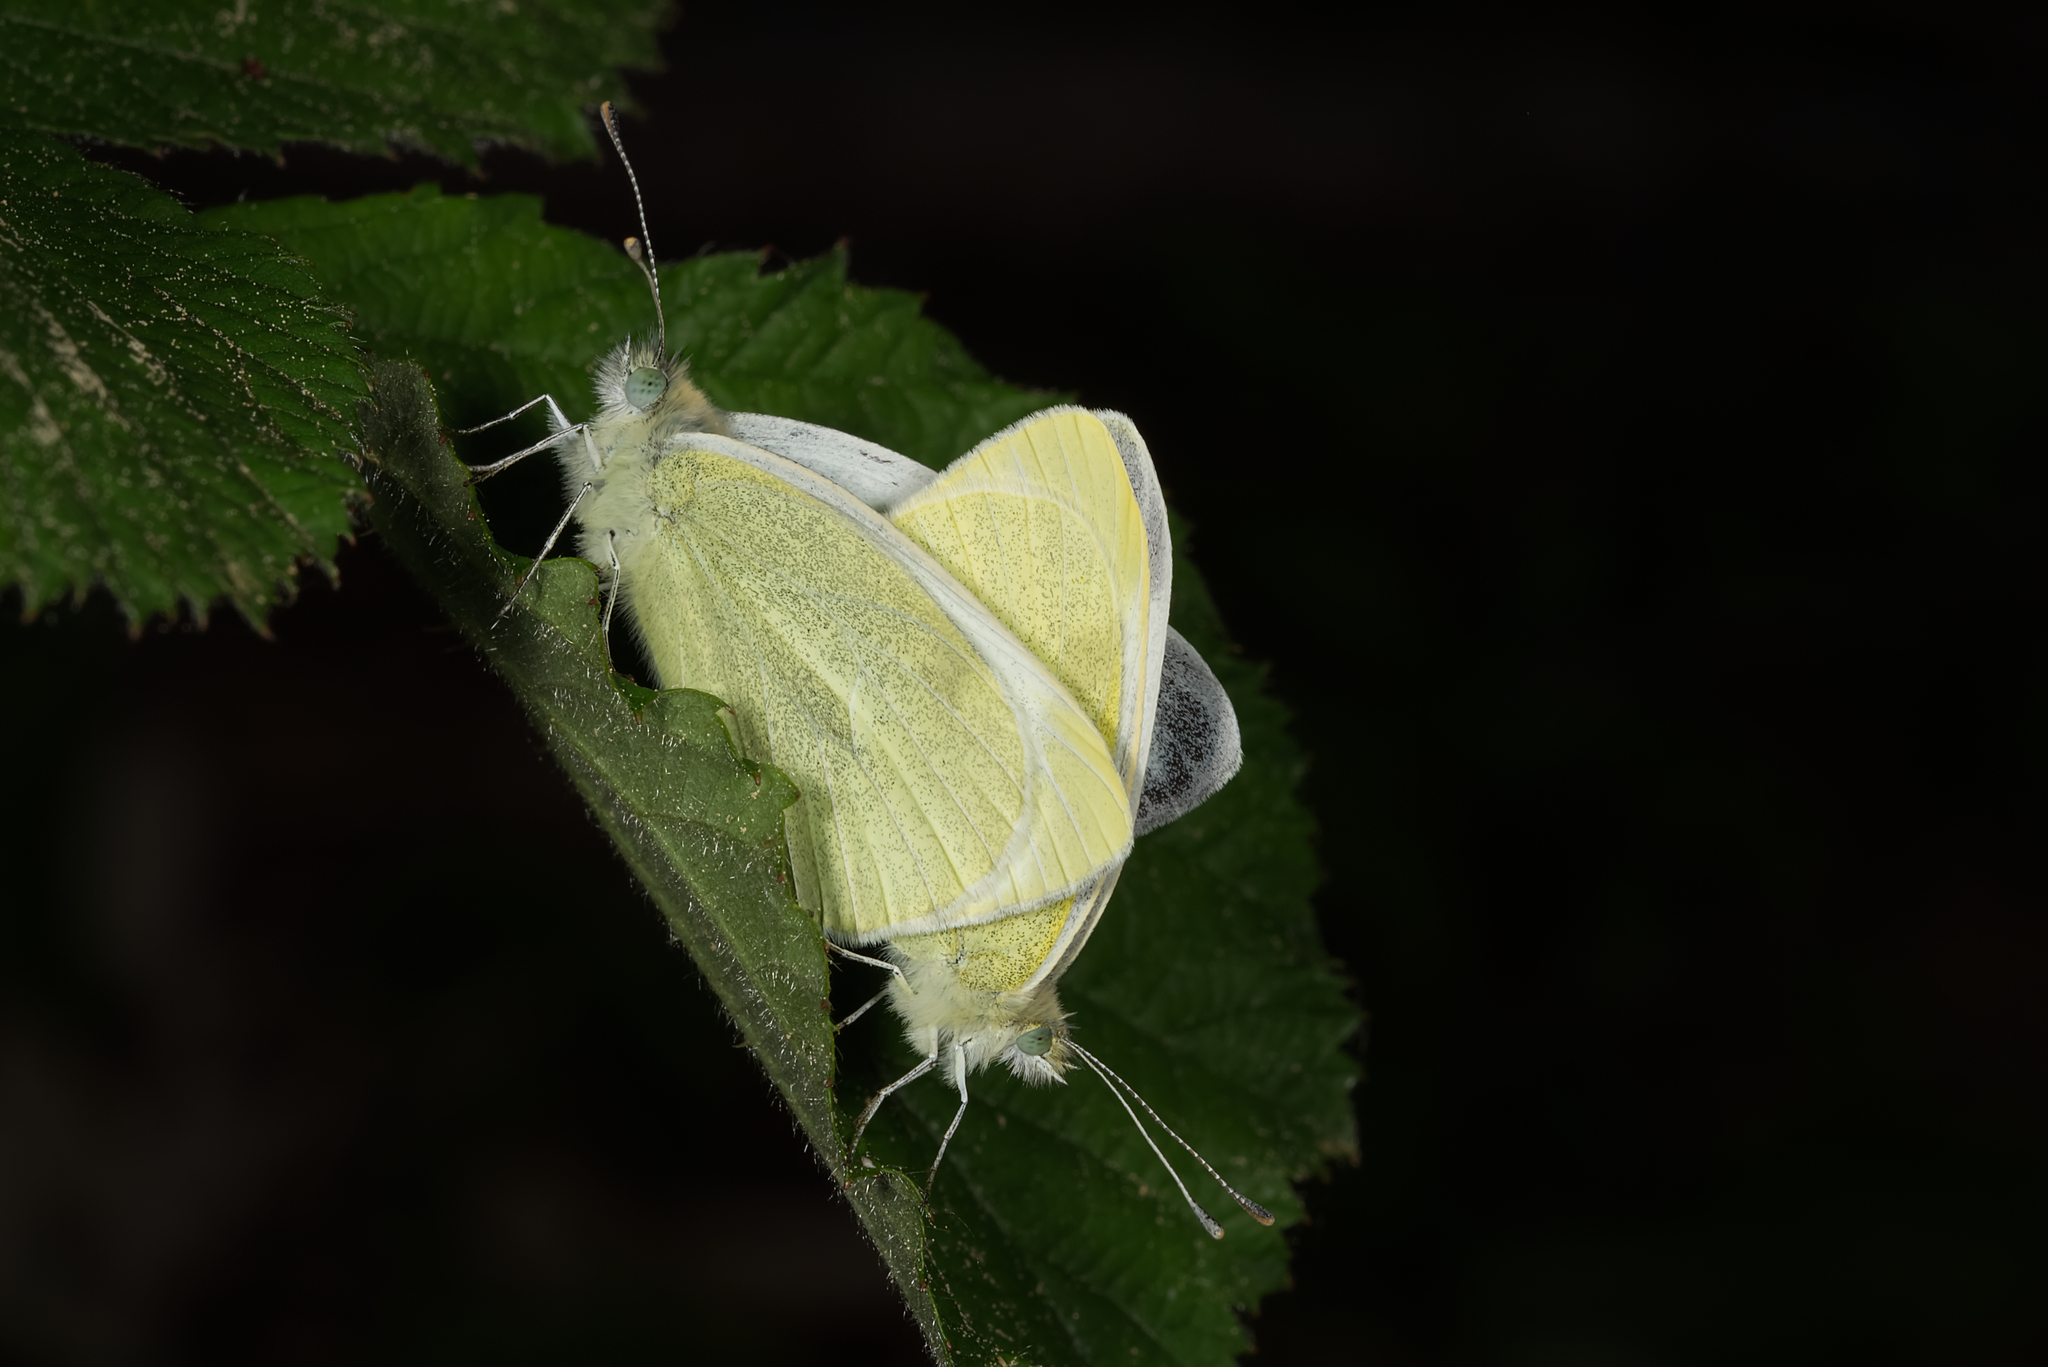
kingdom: Animalia
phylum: Arthropoda
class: Insecta
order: Lepidoptera
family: Pieridae
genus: Pieris
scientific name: Pieris mannii
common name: Southern small white
